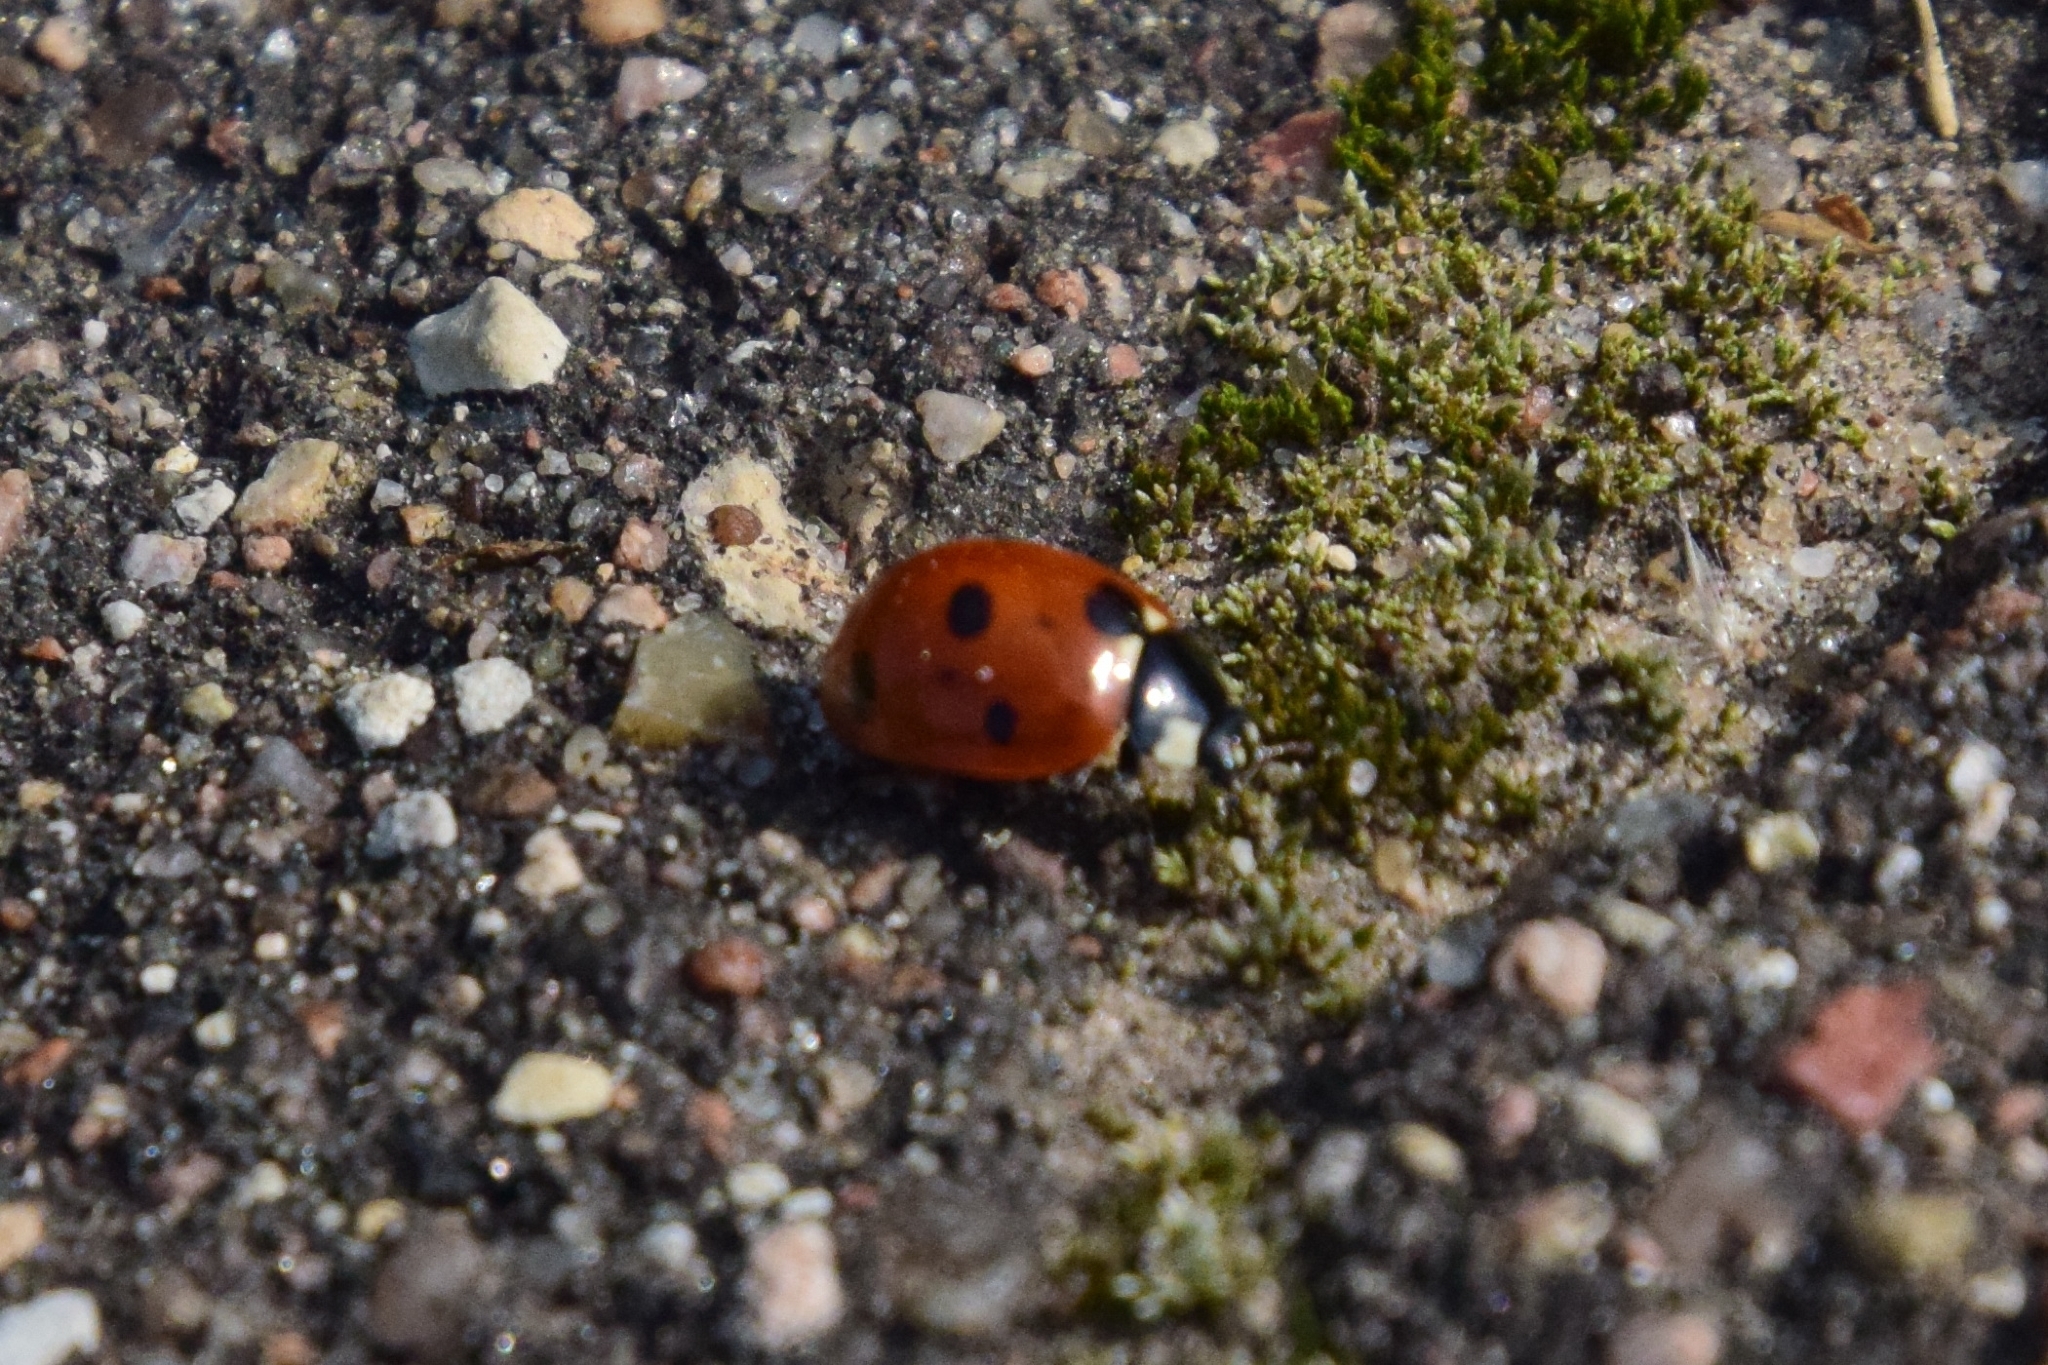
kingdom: Animalia
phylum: Arthropoda
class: Insecta
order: Coleoptera
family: Coccinellidae
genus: Coccinella
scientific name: Coccinella septempunctata
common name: Sevenspotted lady beetle
